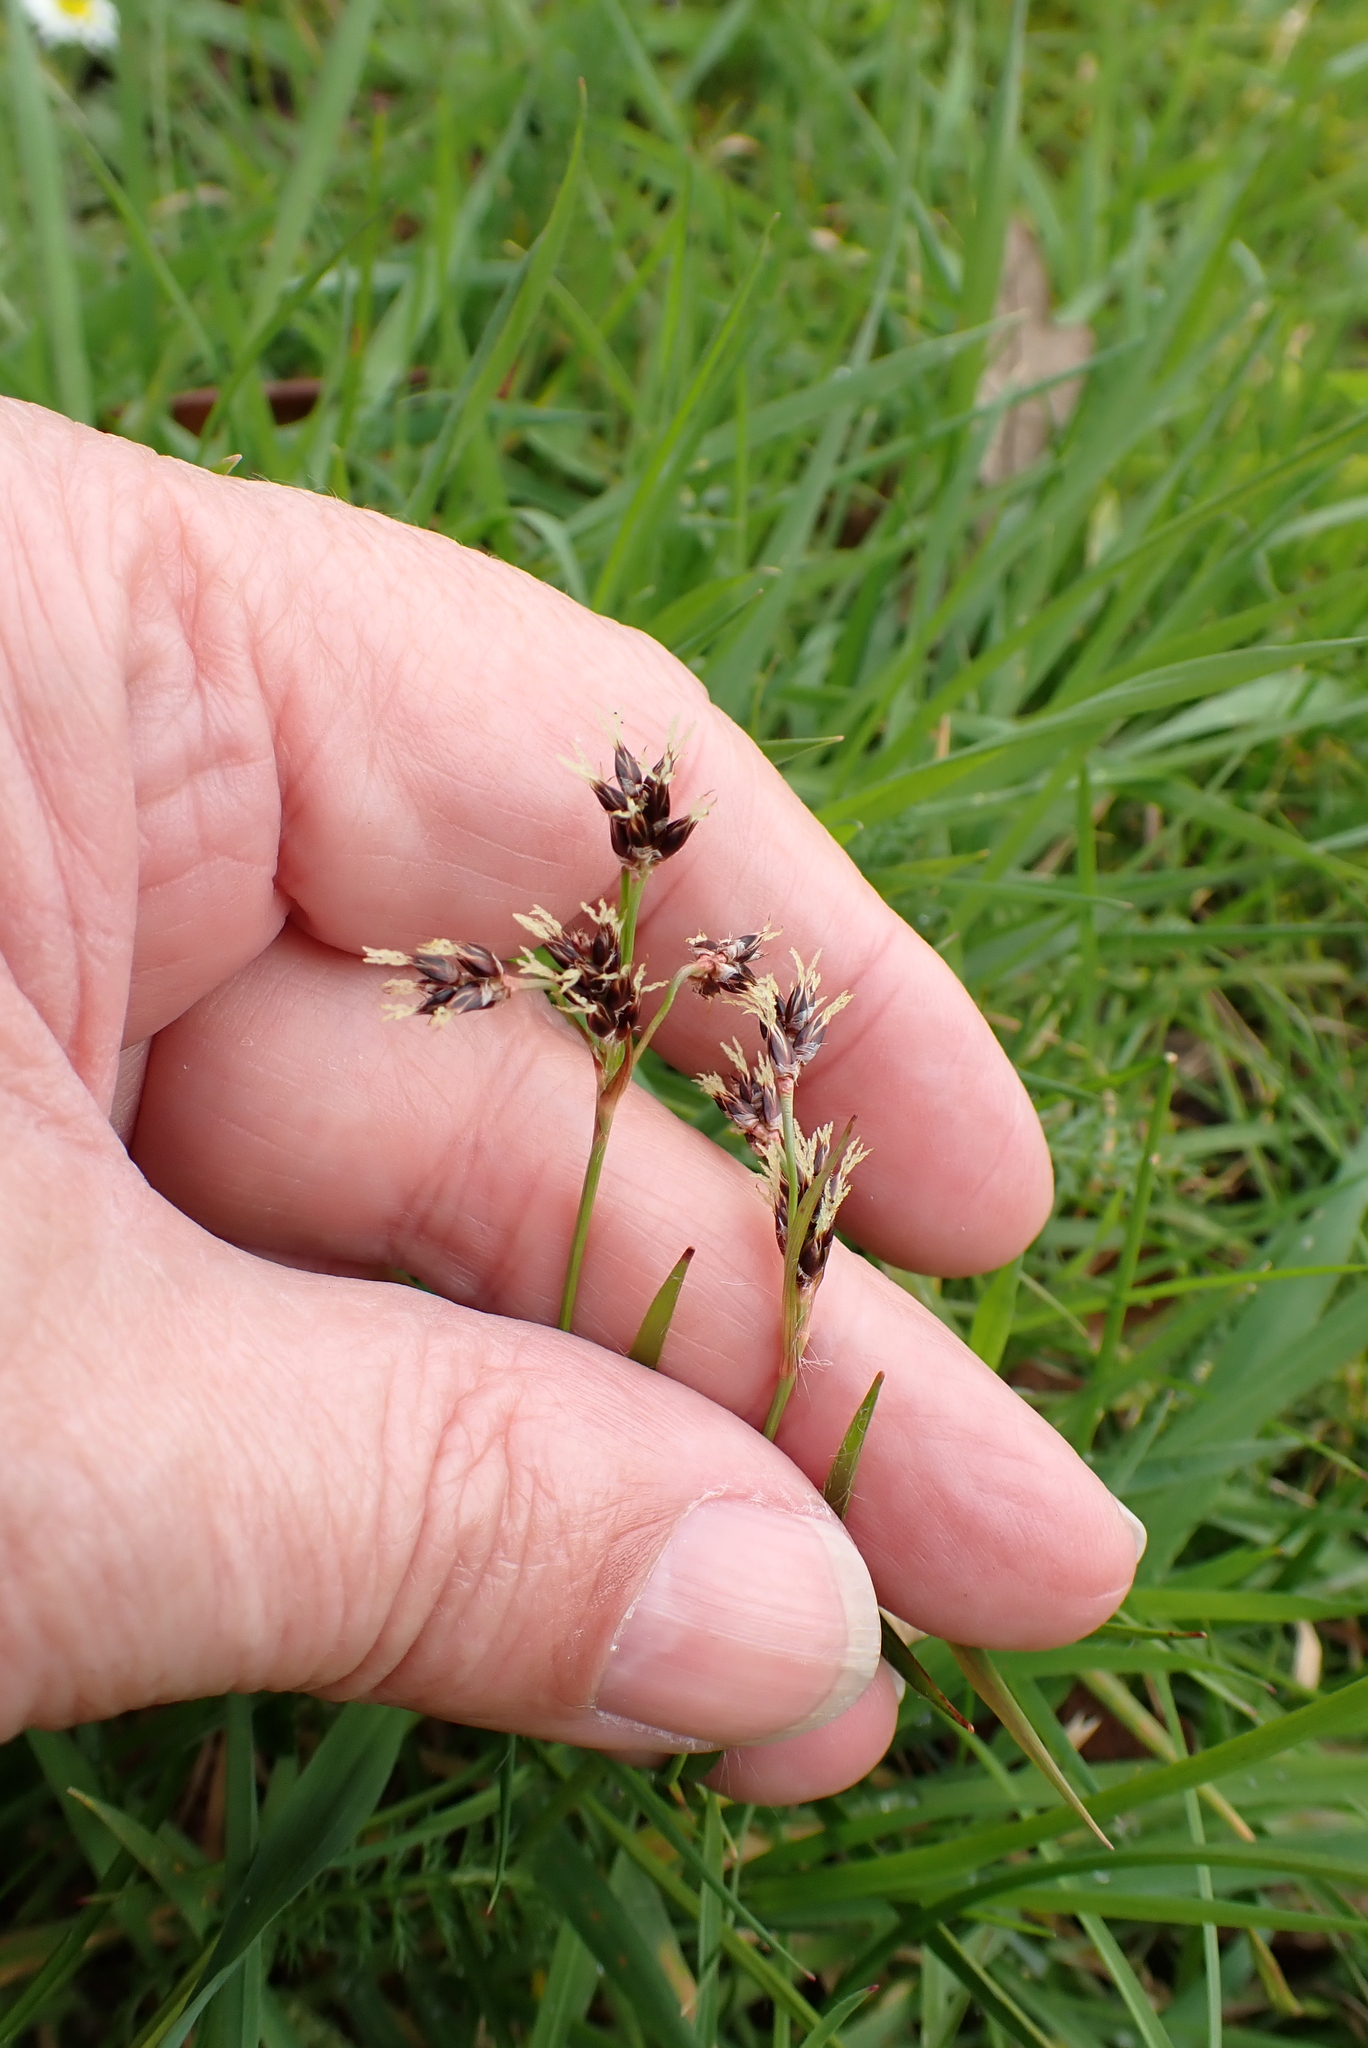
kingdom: Plantae
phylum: Tracheophyta
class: Liliopsida
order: Poales
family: Juncaceae
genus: Luzula
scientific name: Luzula campestris
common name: Field wood-rush
